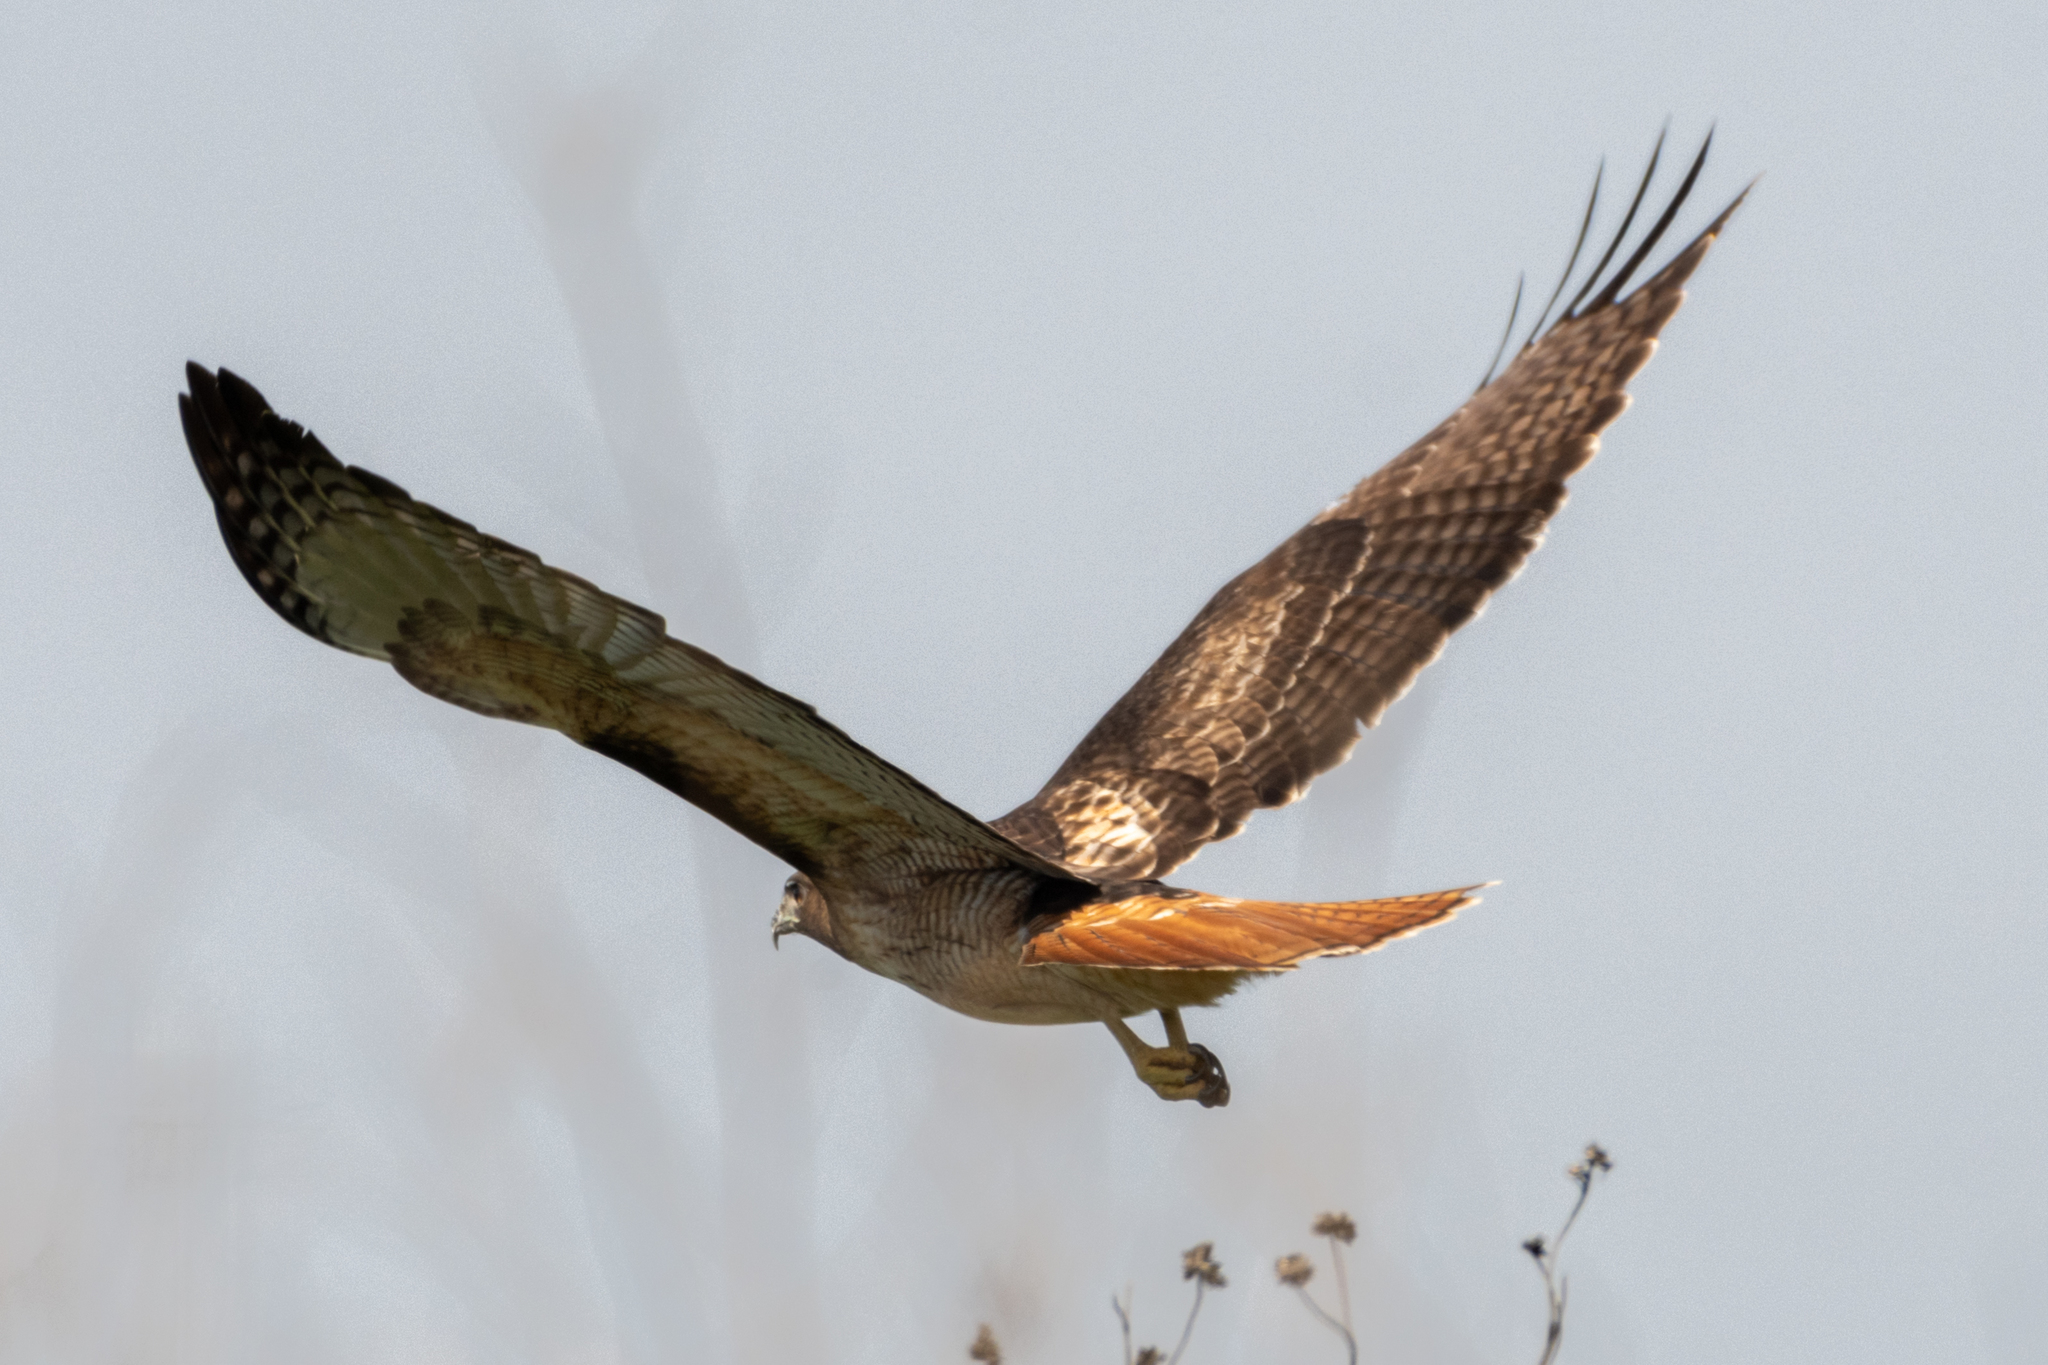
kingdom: Animalia
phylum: Chordata
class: Aves
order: Accipitriformes
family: Accipitridae
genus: Buteo
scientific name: Buteo jamaicensis
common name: Red-tailed hawk
